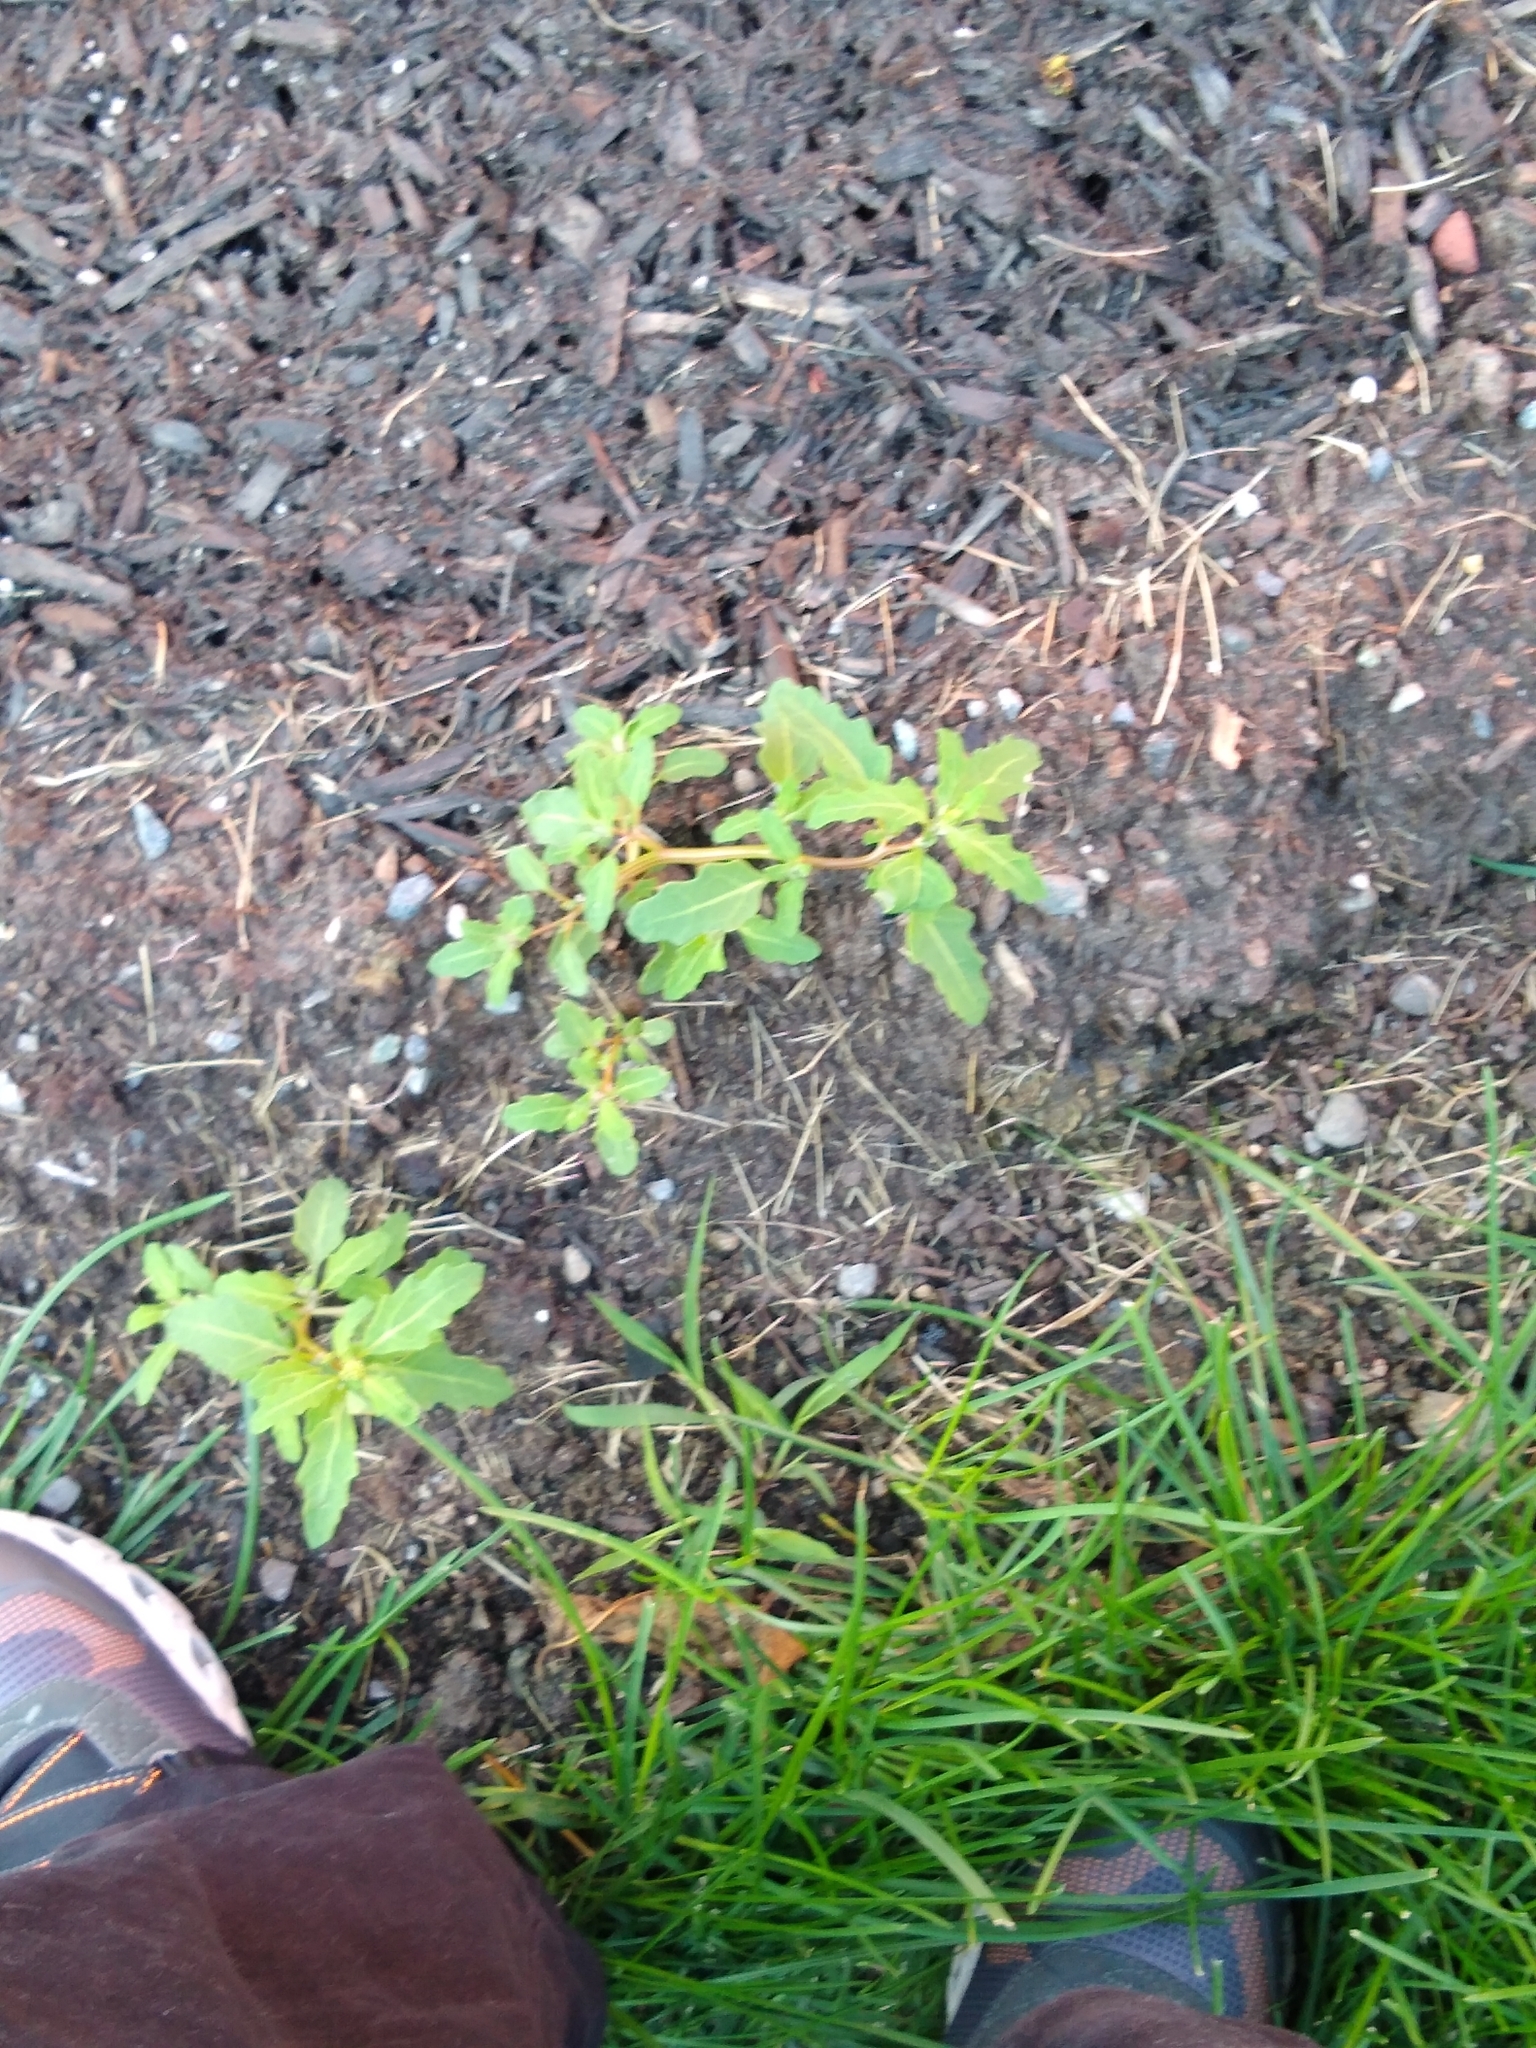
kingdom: Plantae
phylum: Tracheophyta
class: Magnoliopsida
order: Caryophyllales
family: Amaranthaceae
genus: Oxybasis
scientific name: Oxybasis glauca
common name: Glaucous goosefoot
